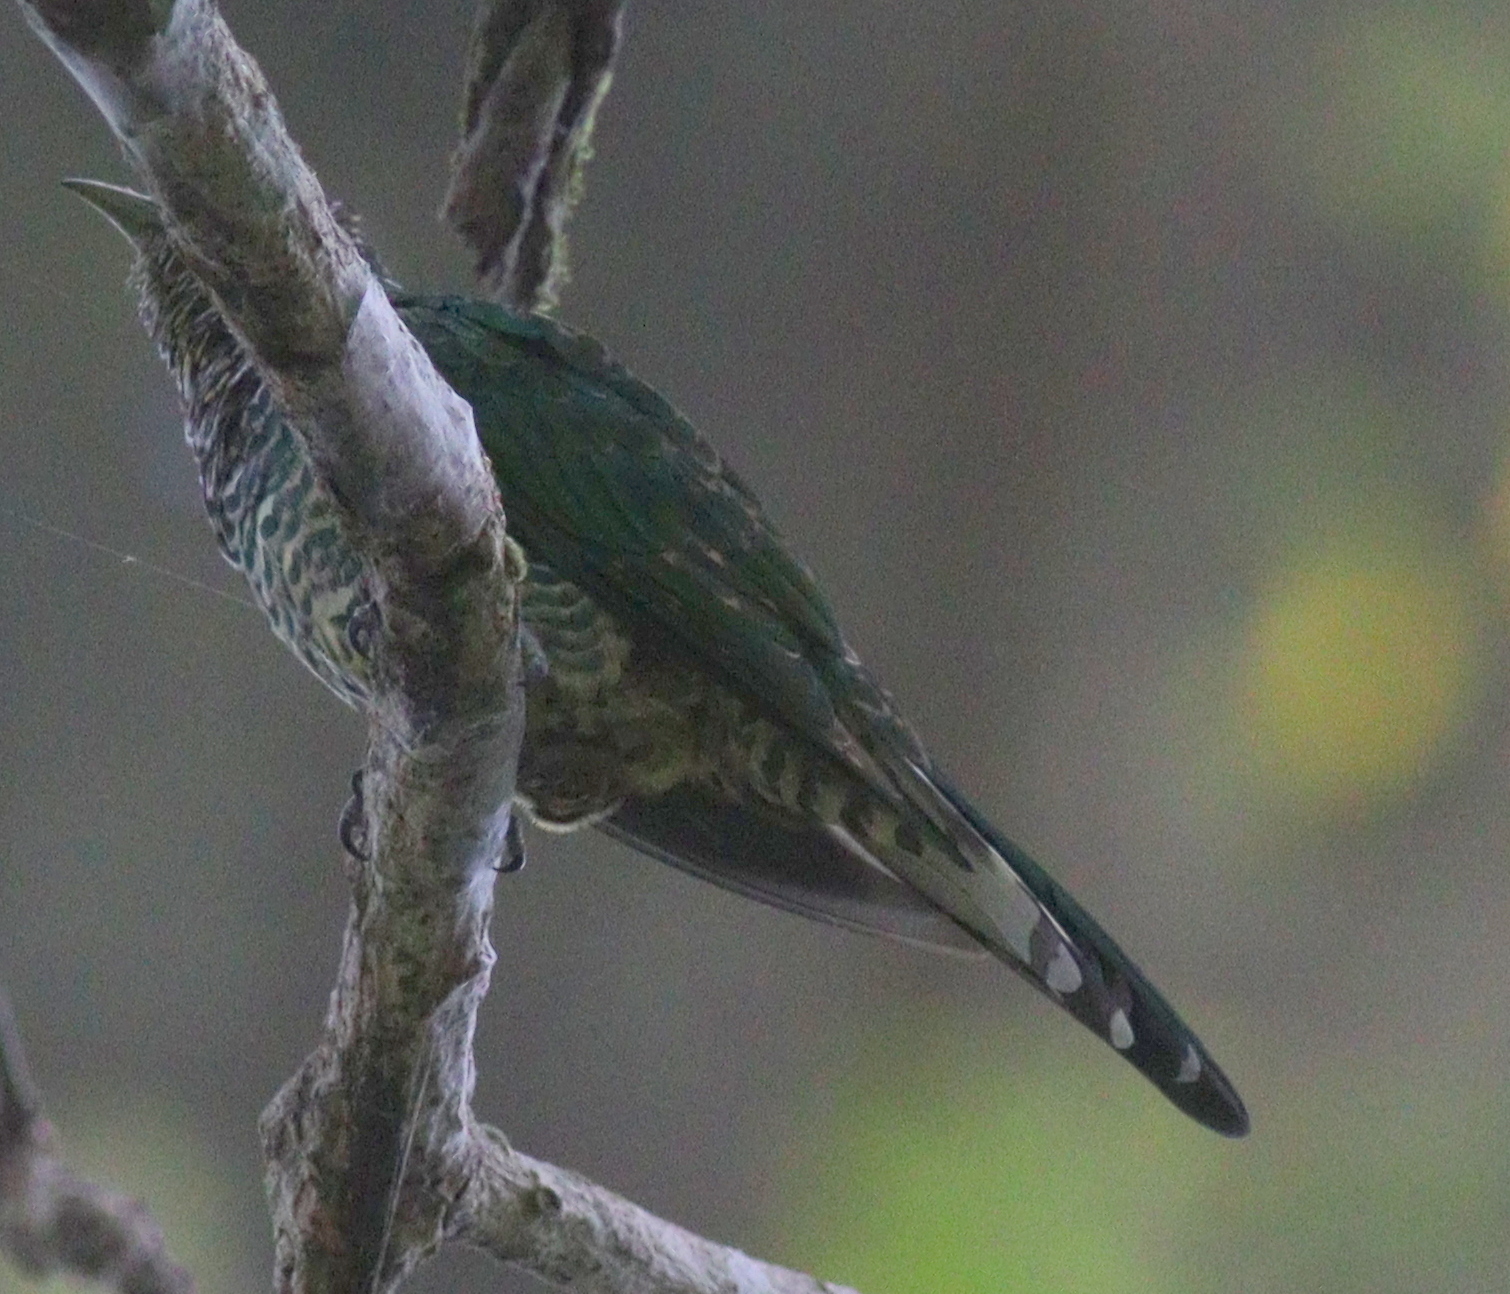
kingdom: Animalia
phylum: Chordata
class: Aves
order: Cuculiformes
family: Cuculidae
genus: Chrysococcyx
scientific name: Chrysococcyx cupreus
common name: African emerald cuckoo
